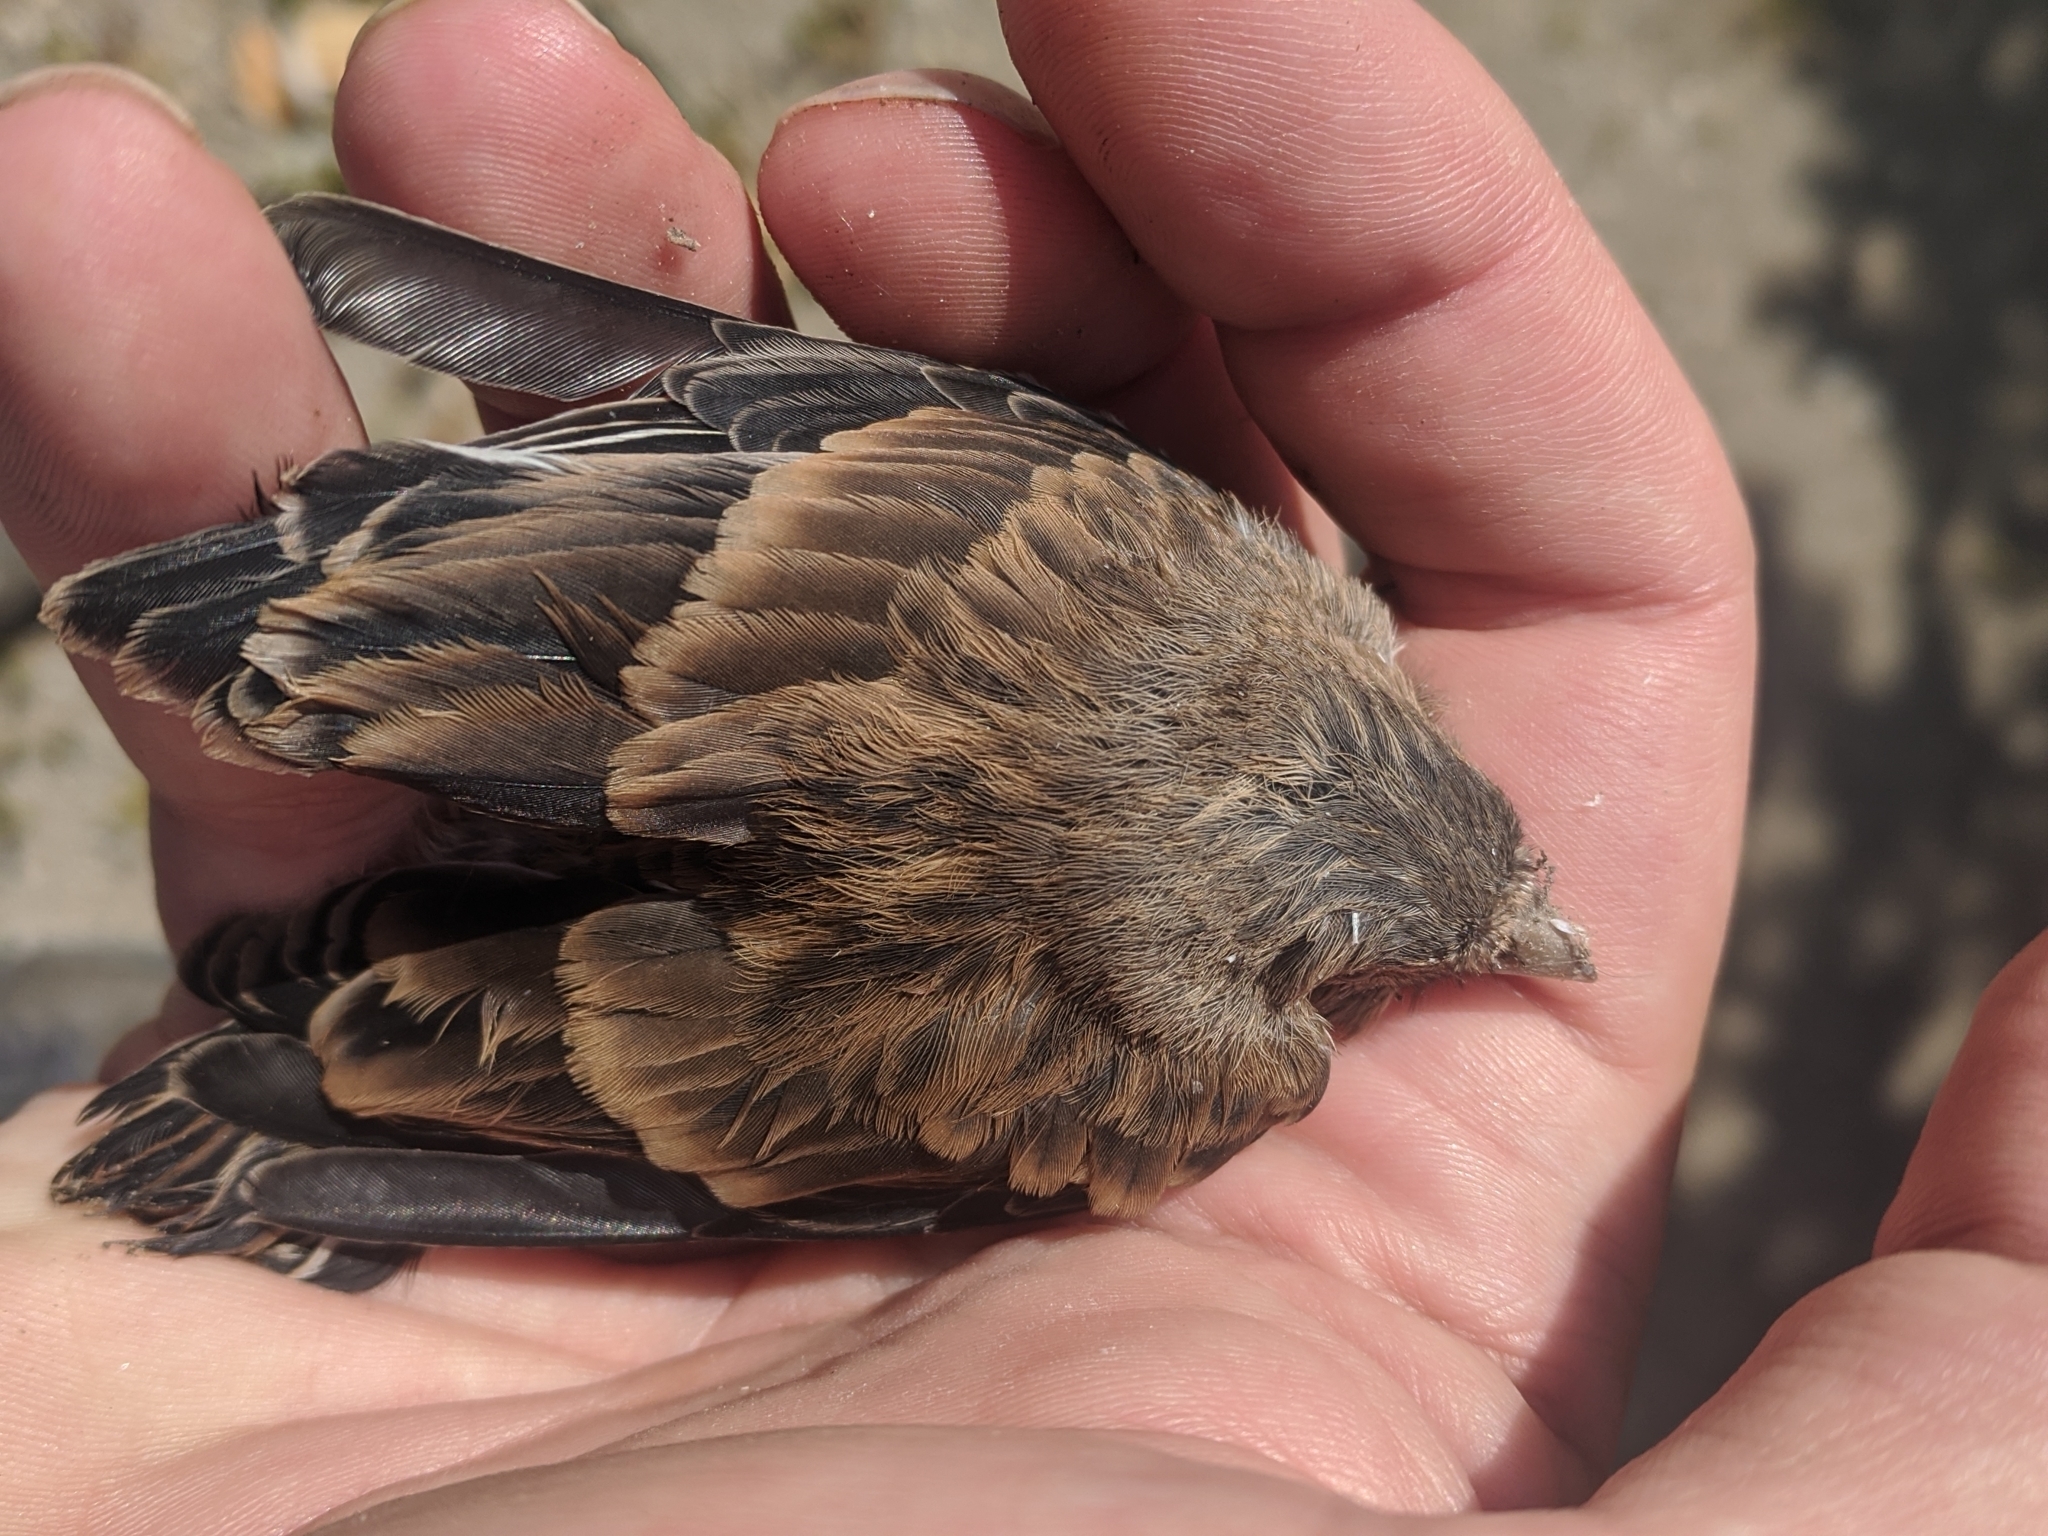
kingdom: Animalia
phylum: Chordata
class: Aves
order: Passeriformes
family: Fringillidae
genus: Linaria
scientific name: Linaria cannabina
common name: Common linnet
